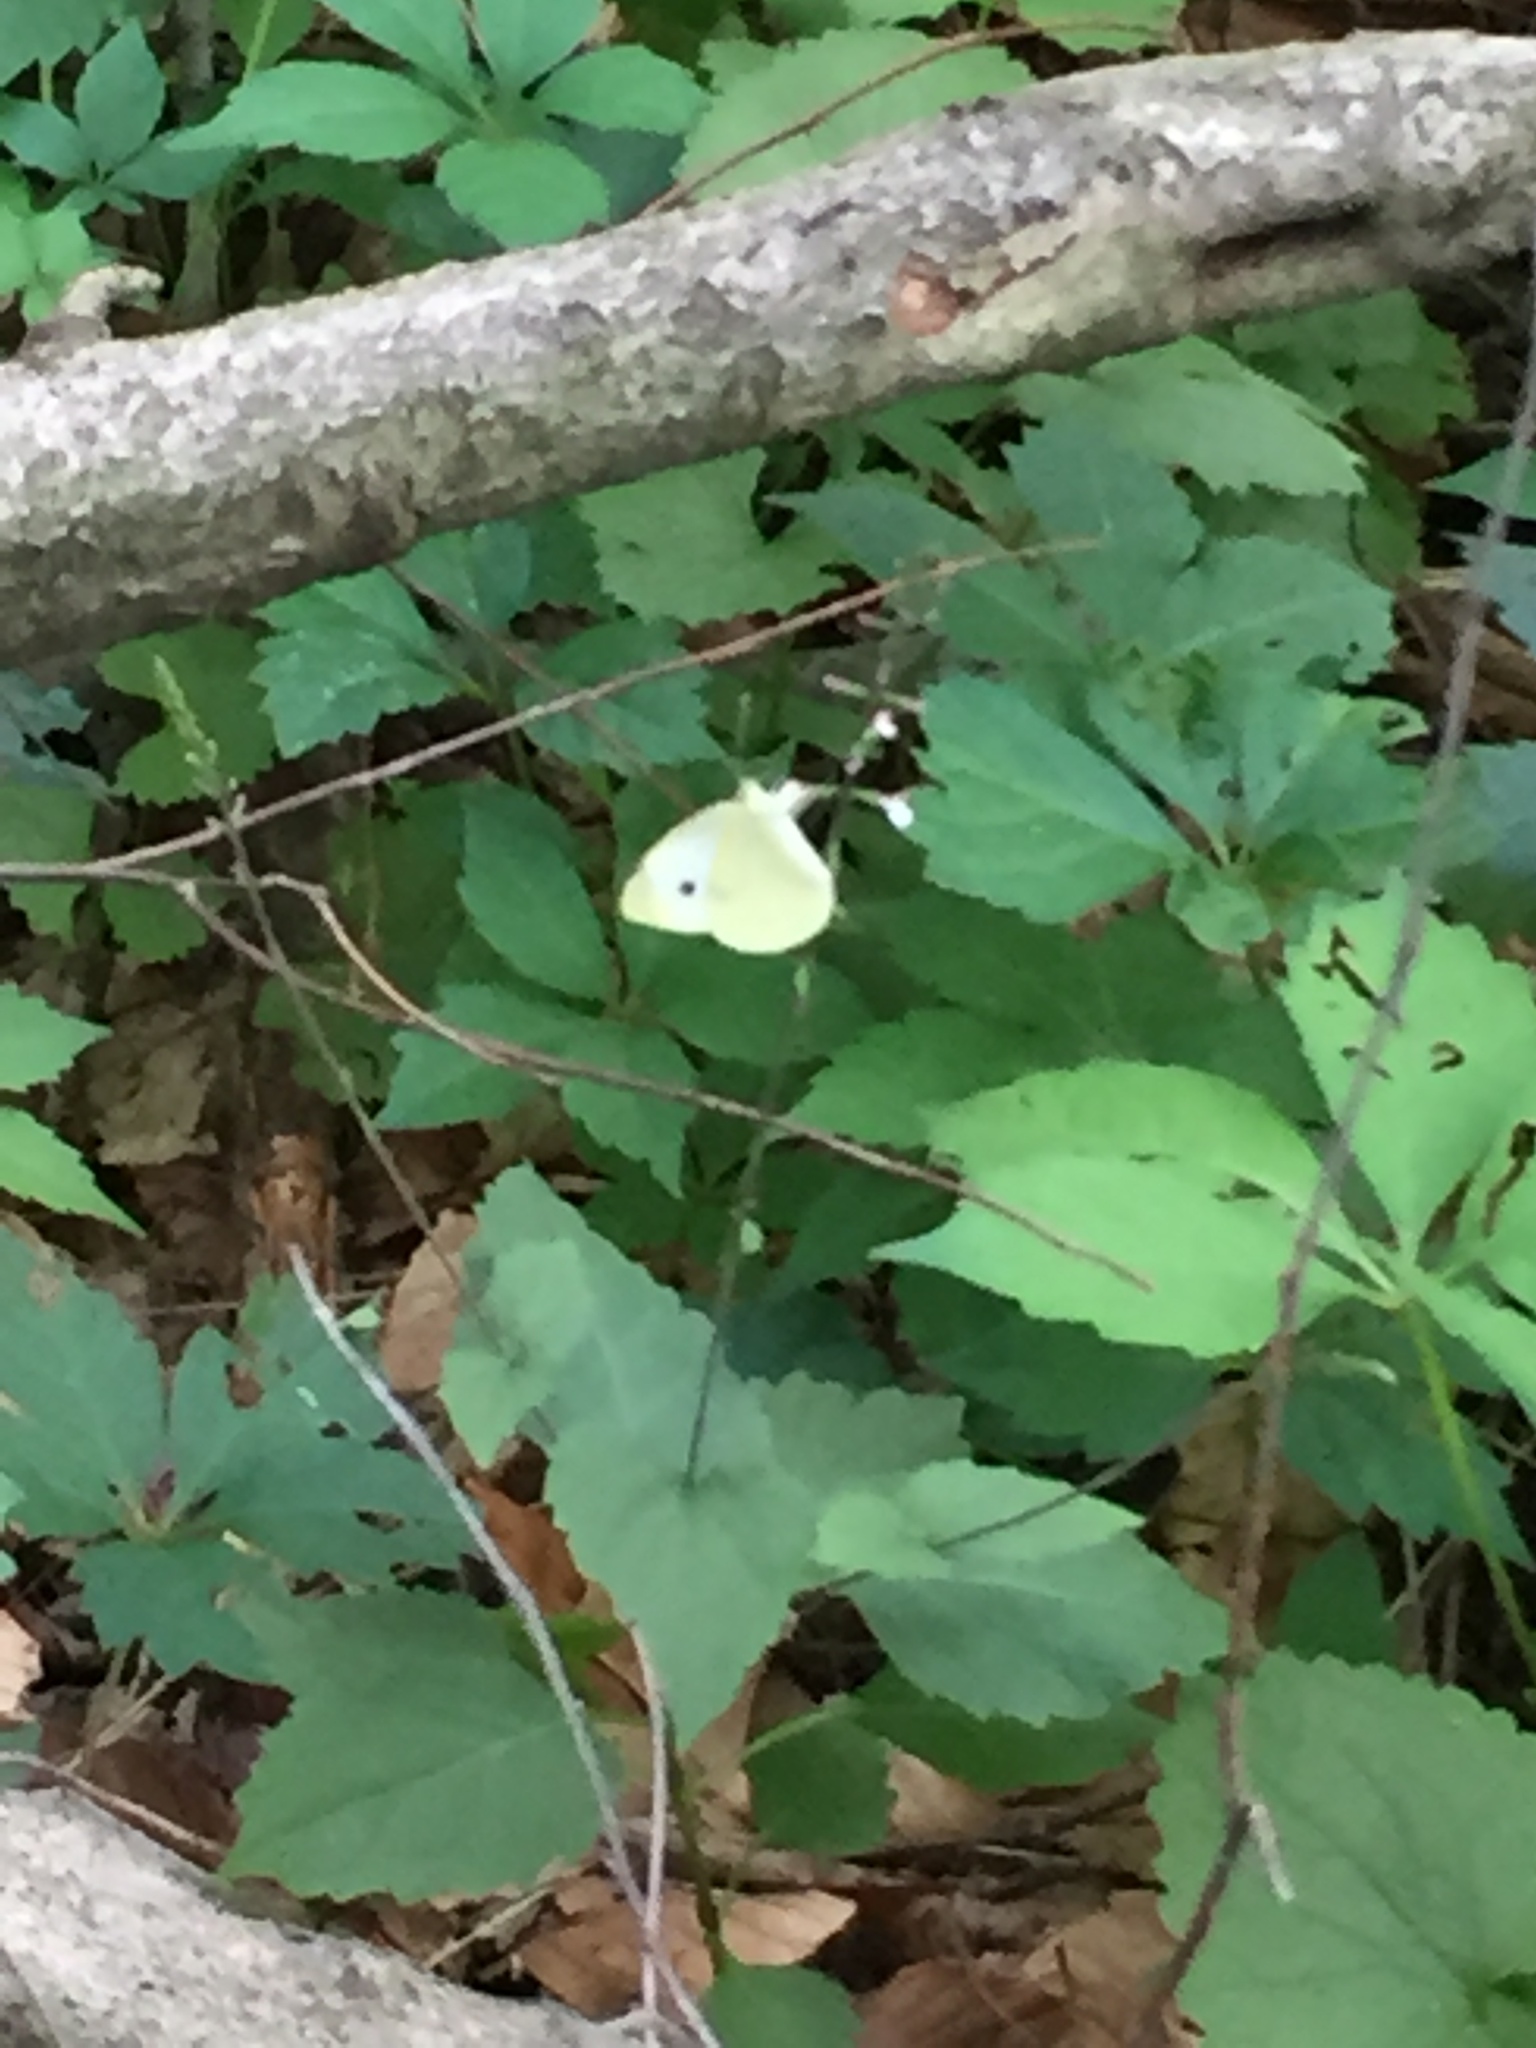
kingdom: Animalia
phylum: Arthropoda
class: Insecta
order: Lepidoptera
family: Pieridae
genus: Pieris
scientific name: Pieris rapae
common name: Small white
